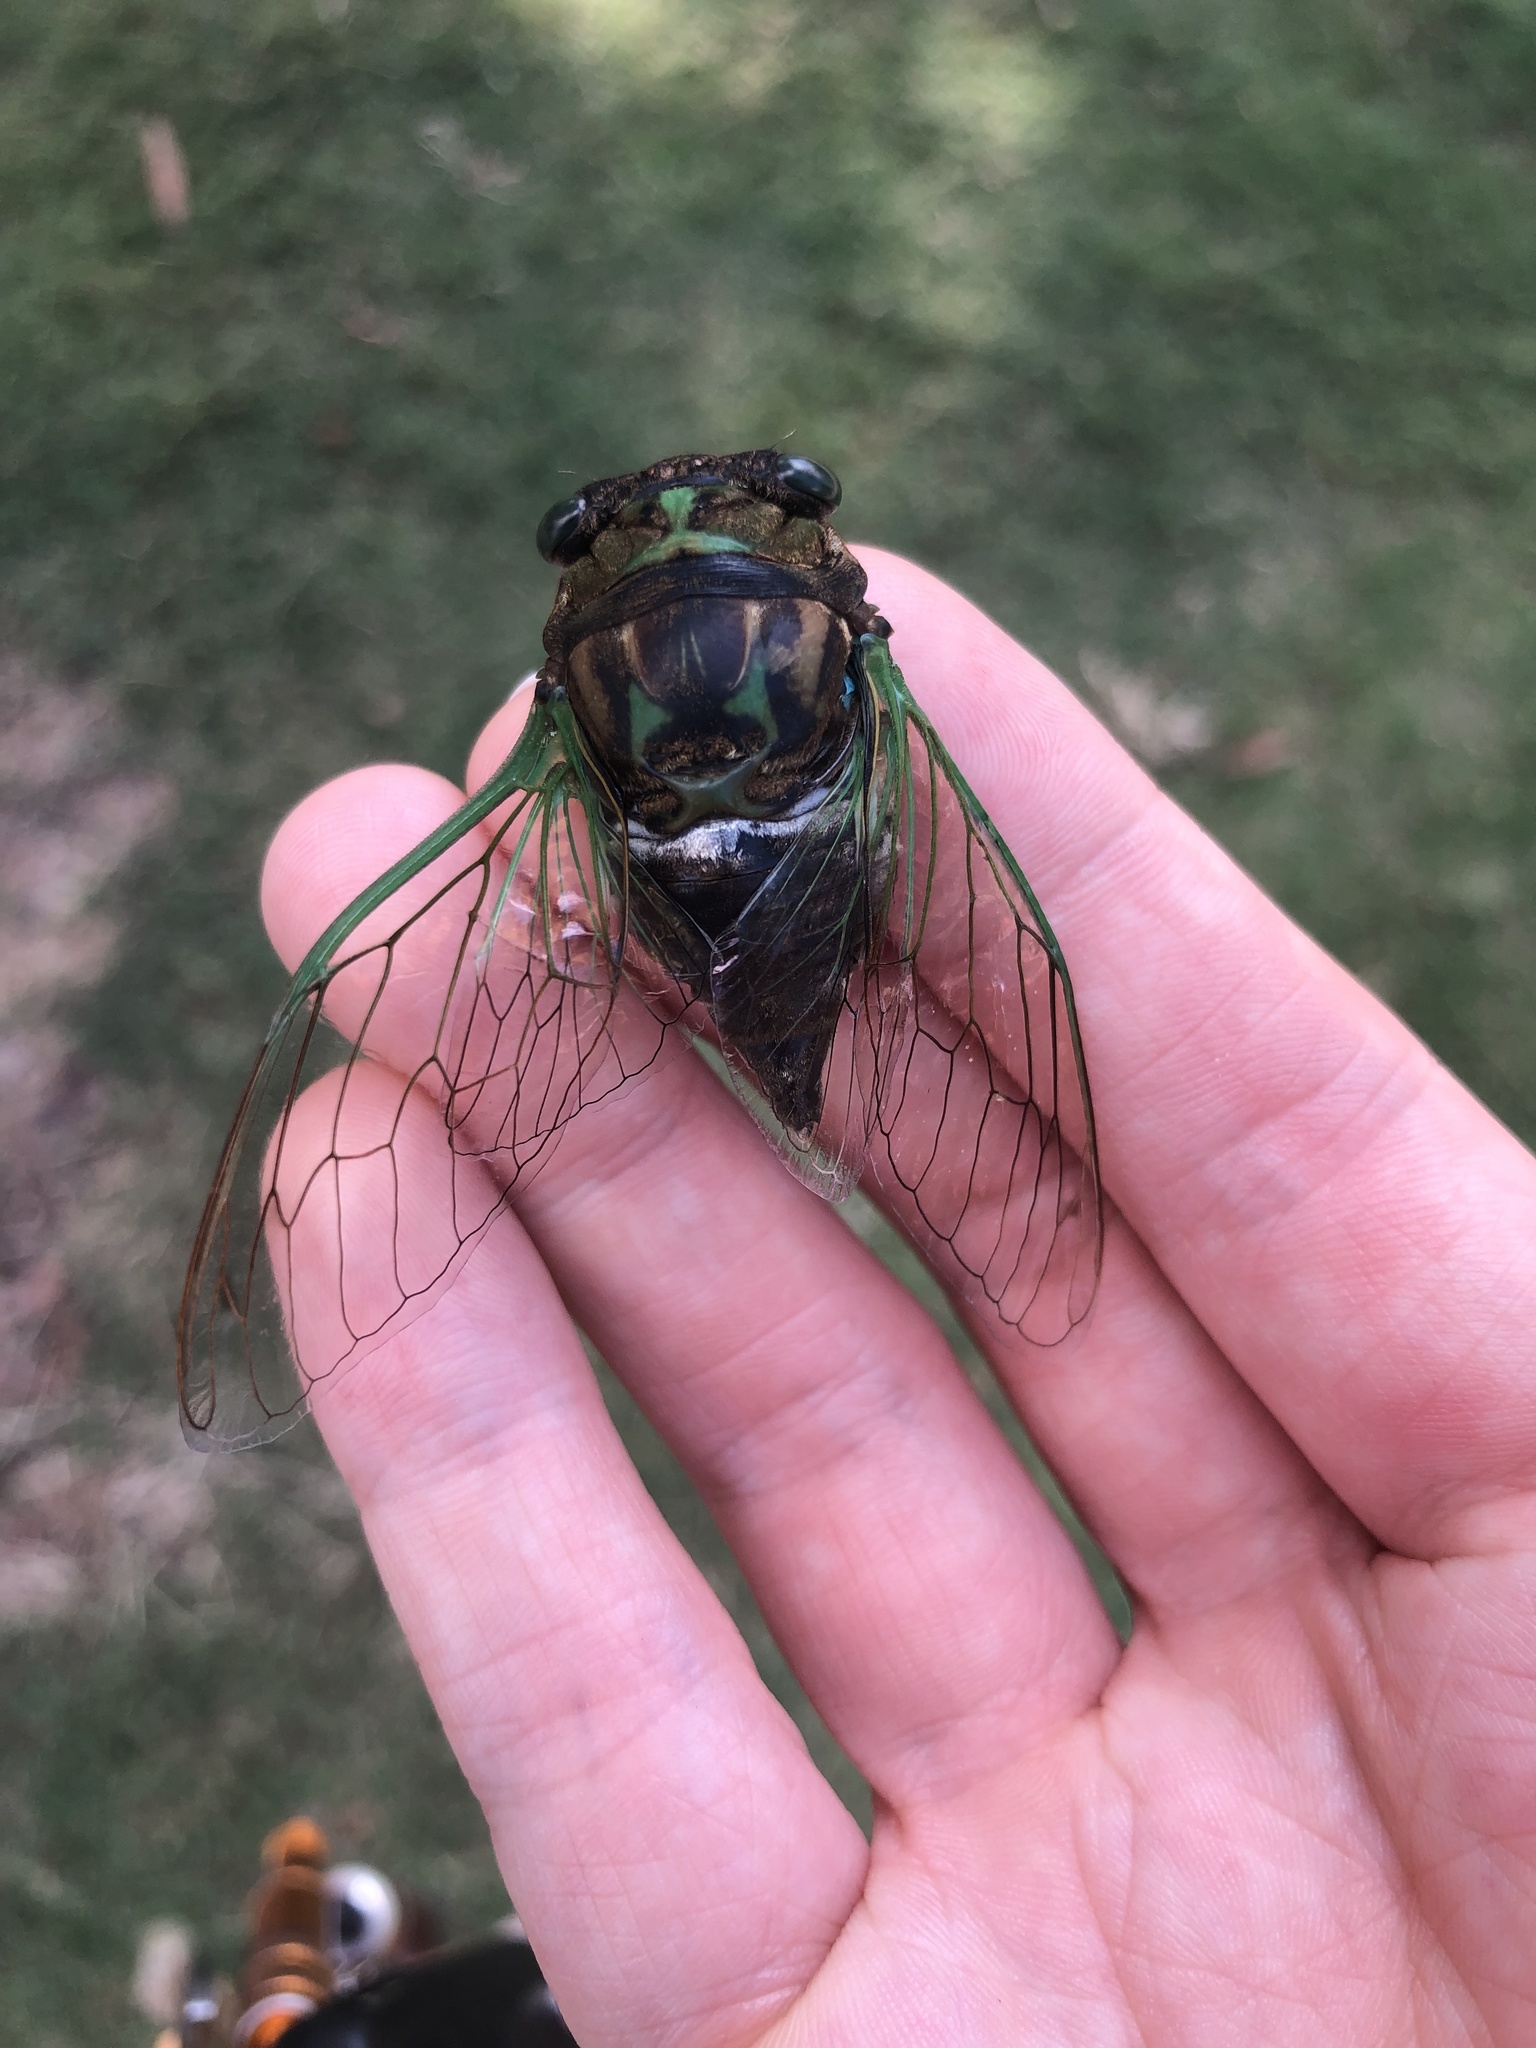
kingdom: Animalia
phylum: Arthropoda
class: Insecta
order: Hemiptera
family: Cicadidae
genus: Neotibicen
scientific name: Neotibicen tibicen
